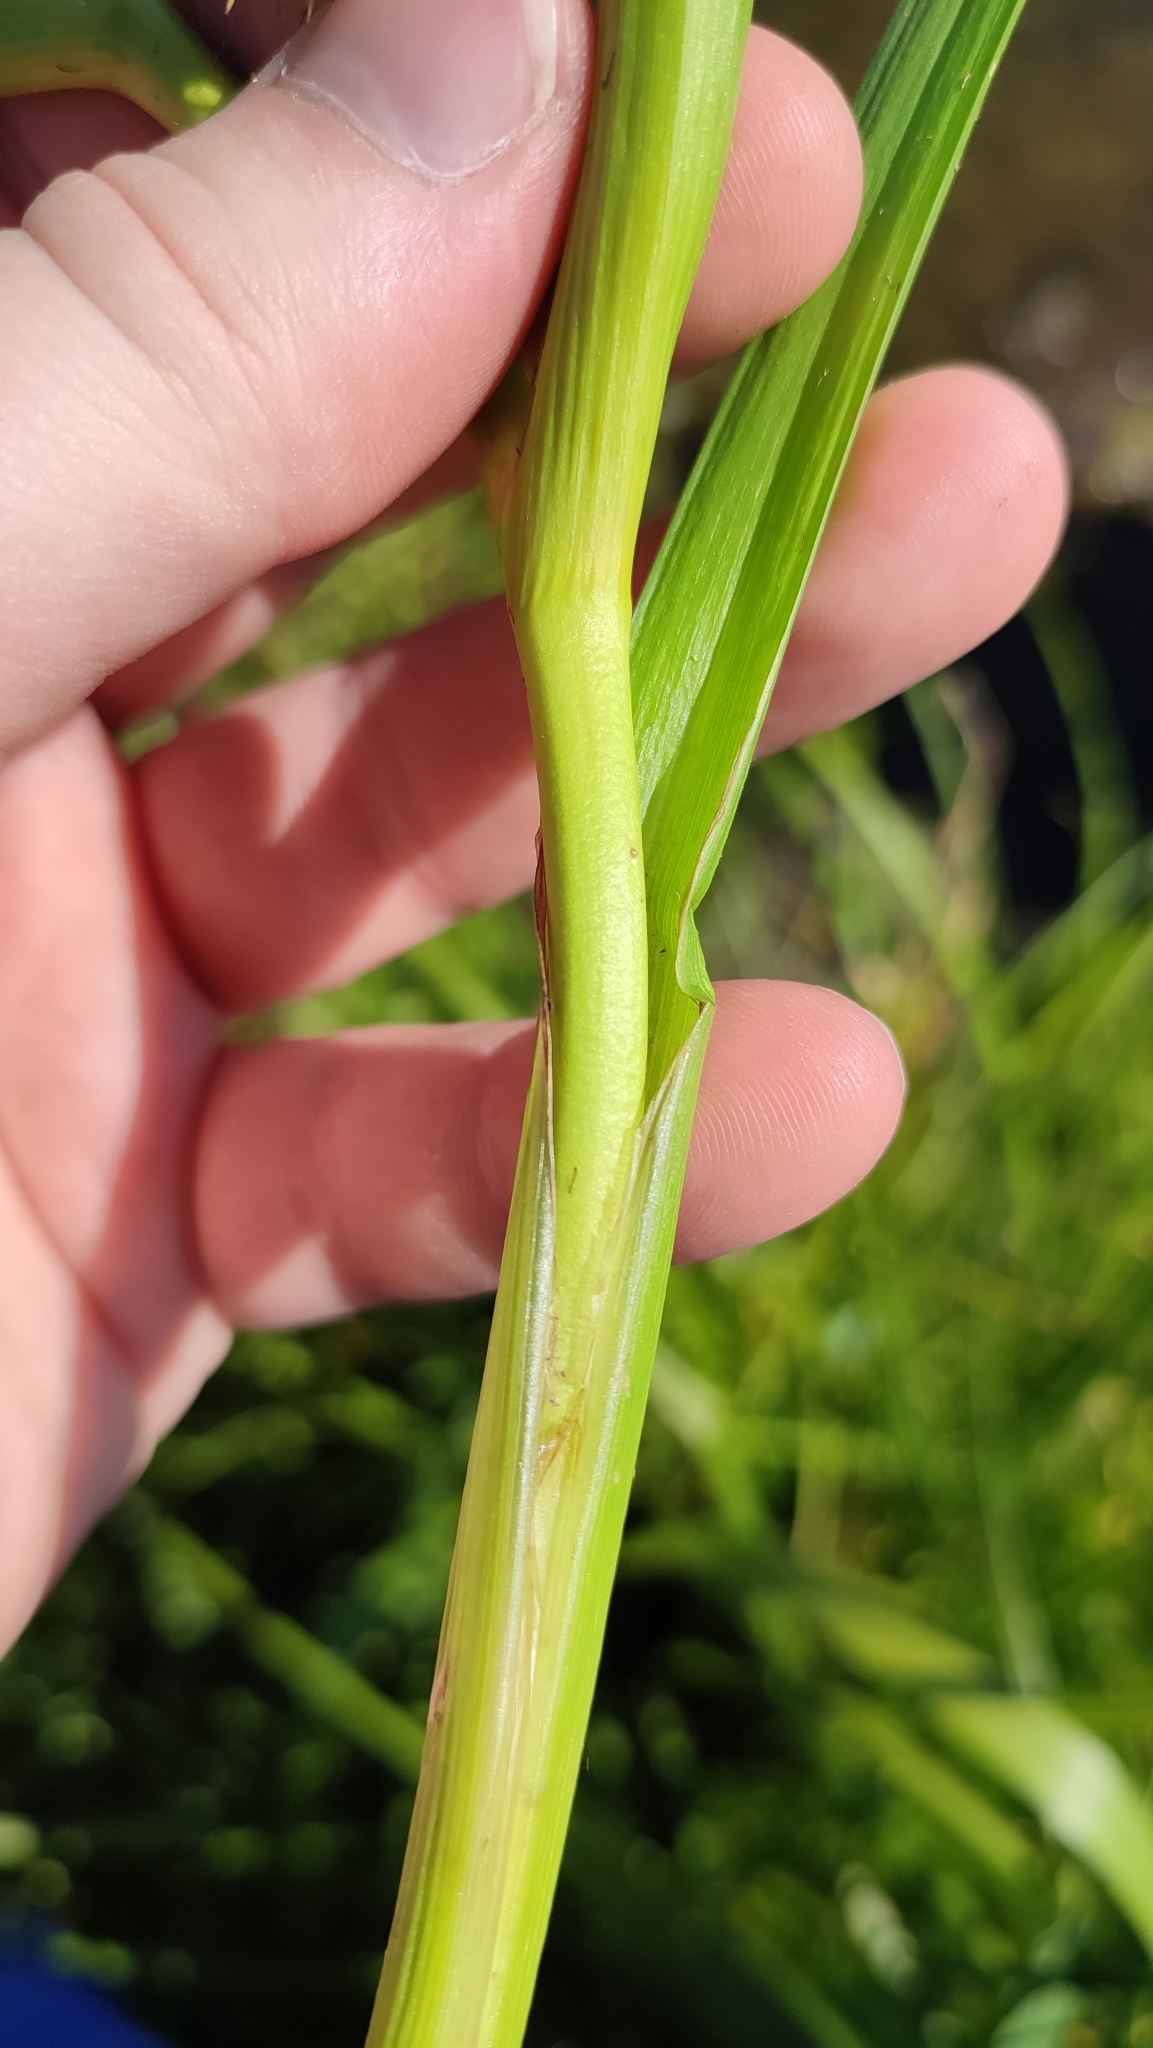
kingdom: Plantae
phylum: Tracheophyta
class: Liliopsida
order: Poales
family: Typhaceae
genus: Sparganium
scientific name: Sparganium emersum
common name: Unbranched bur-reed
